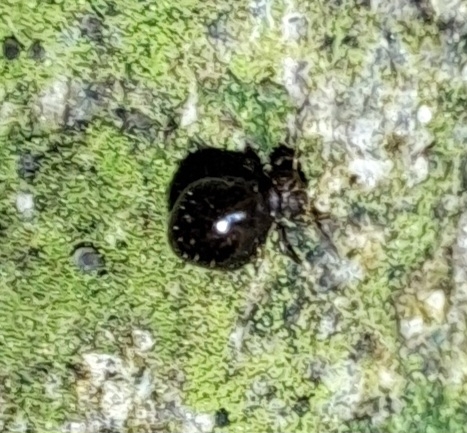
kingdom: Animalia
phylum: Arthropoda
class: Collembola
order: Symphypleona
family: Sminthuridae
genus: Allacma
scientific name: Allacma fusca
